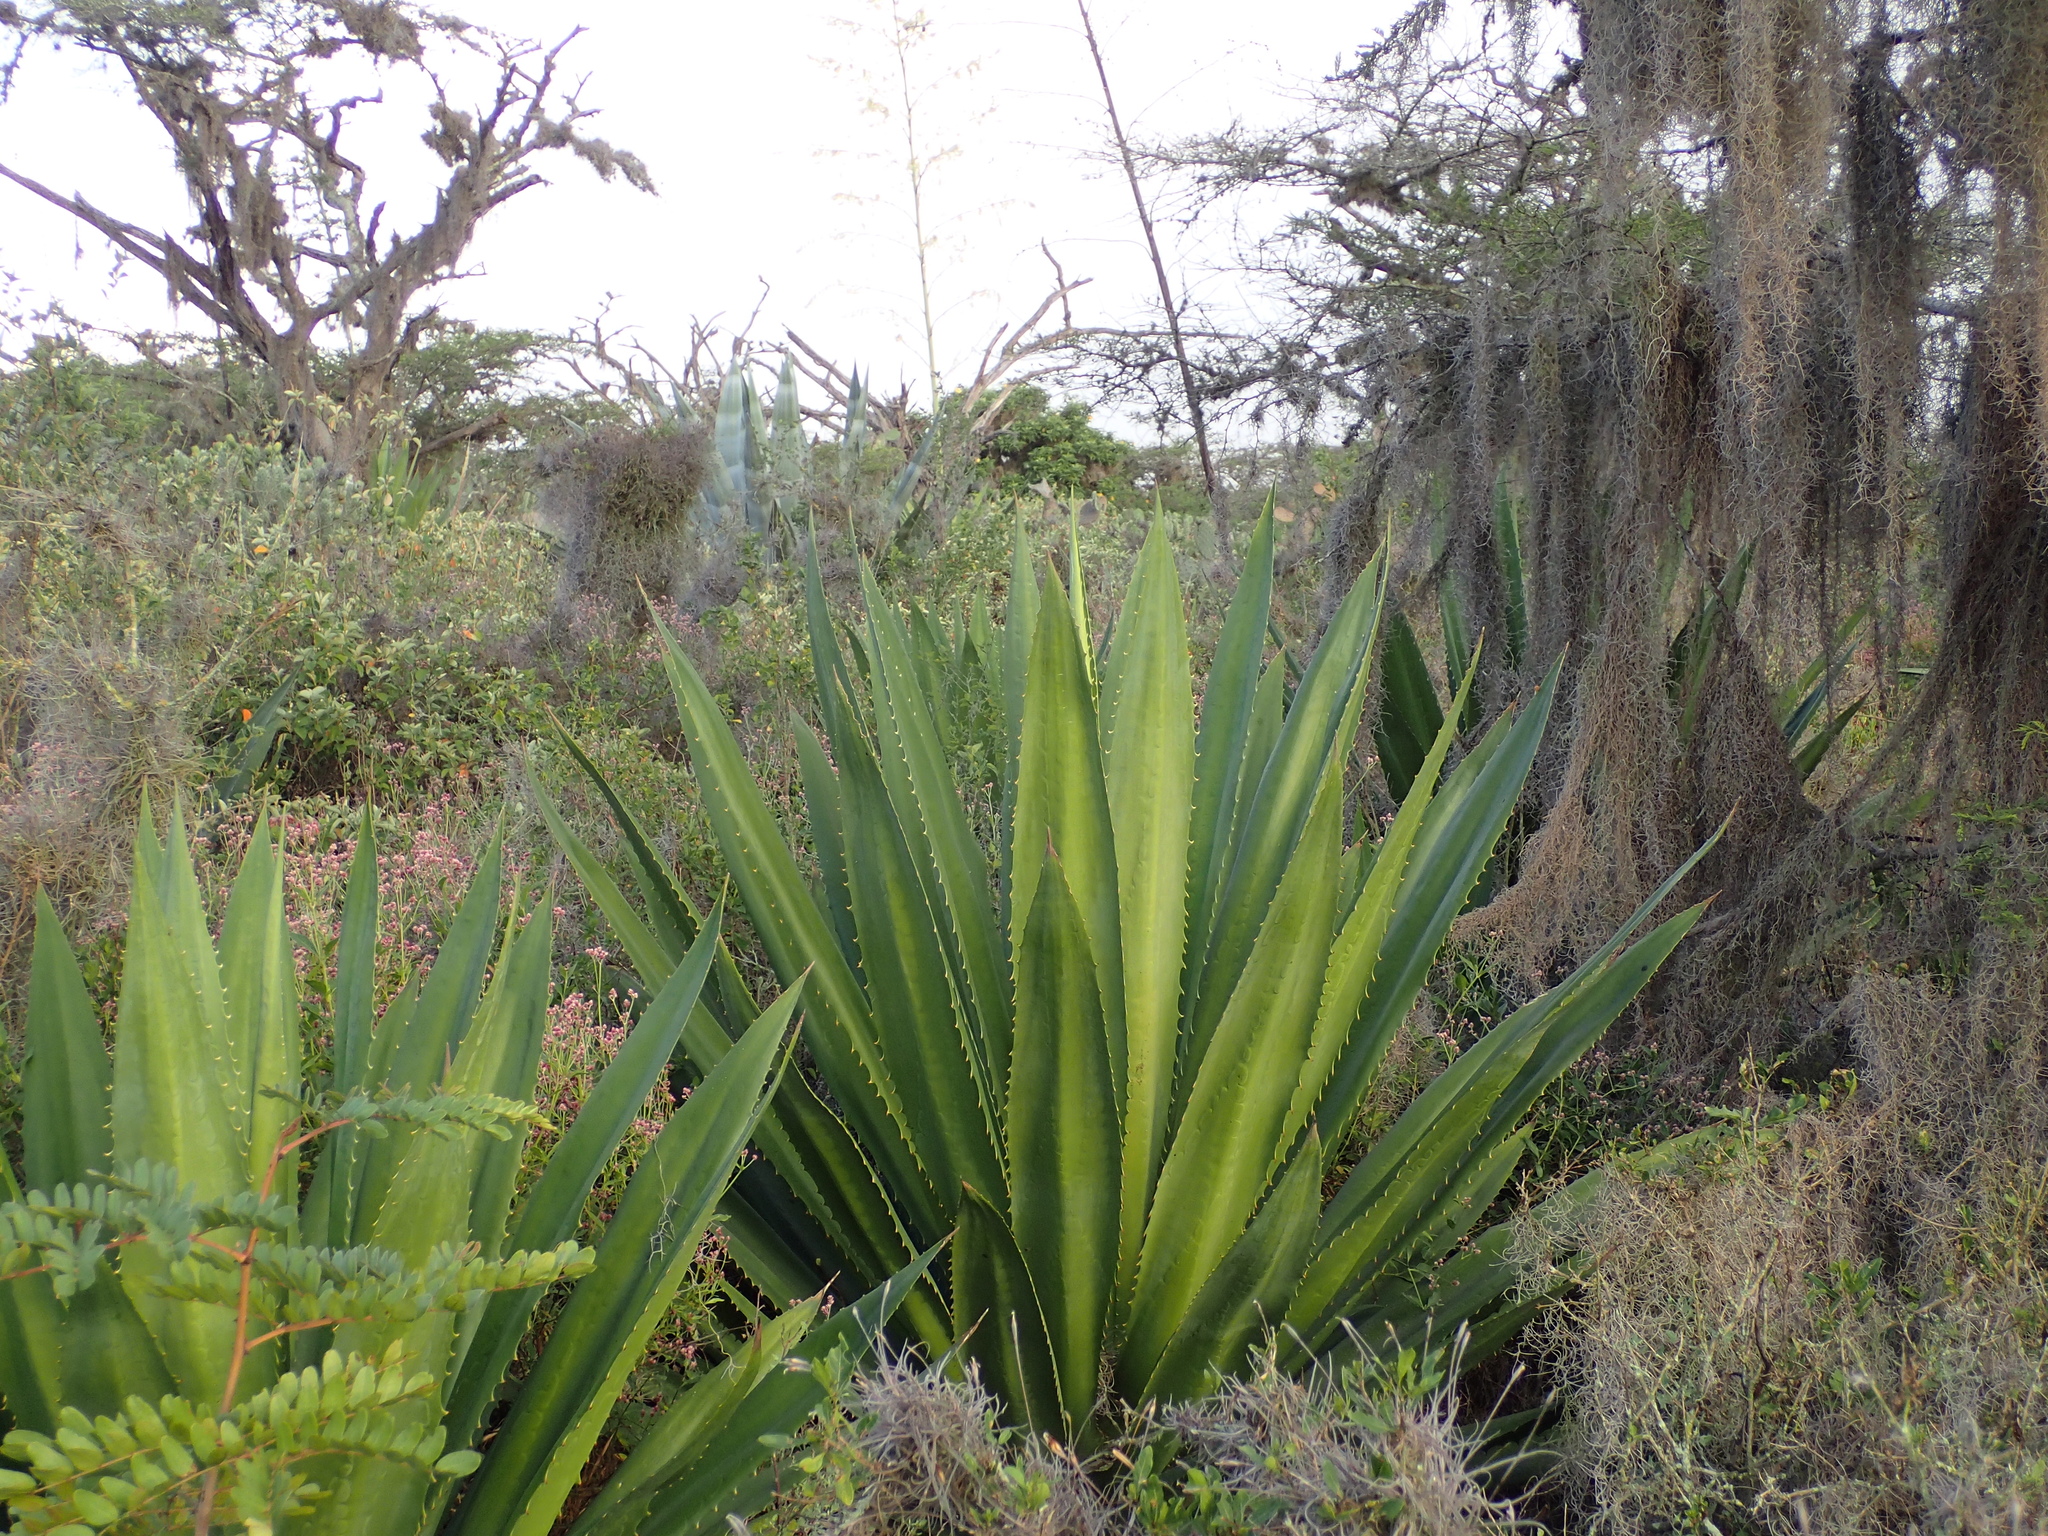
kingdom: Plantae
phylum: Tracheophyta
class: Liliopsida
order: Asparagales
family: Asparagaceae
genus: Furcraea
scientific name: Furcraea andina
